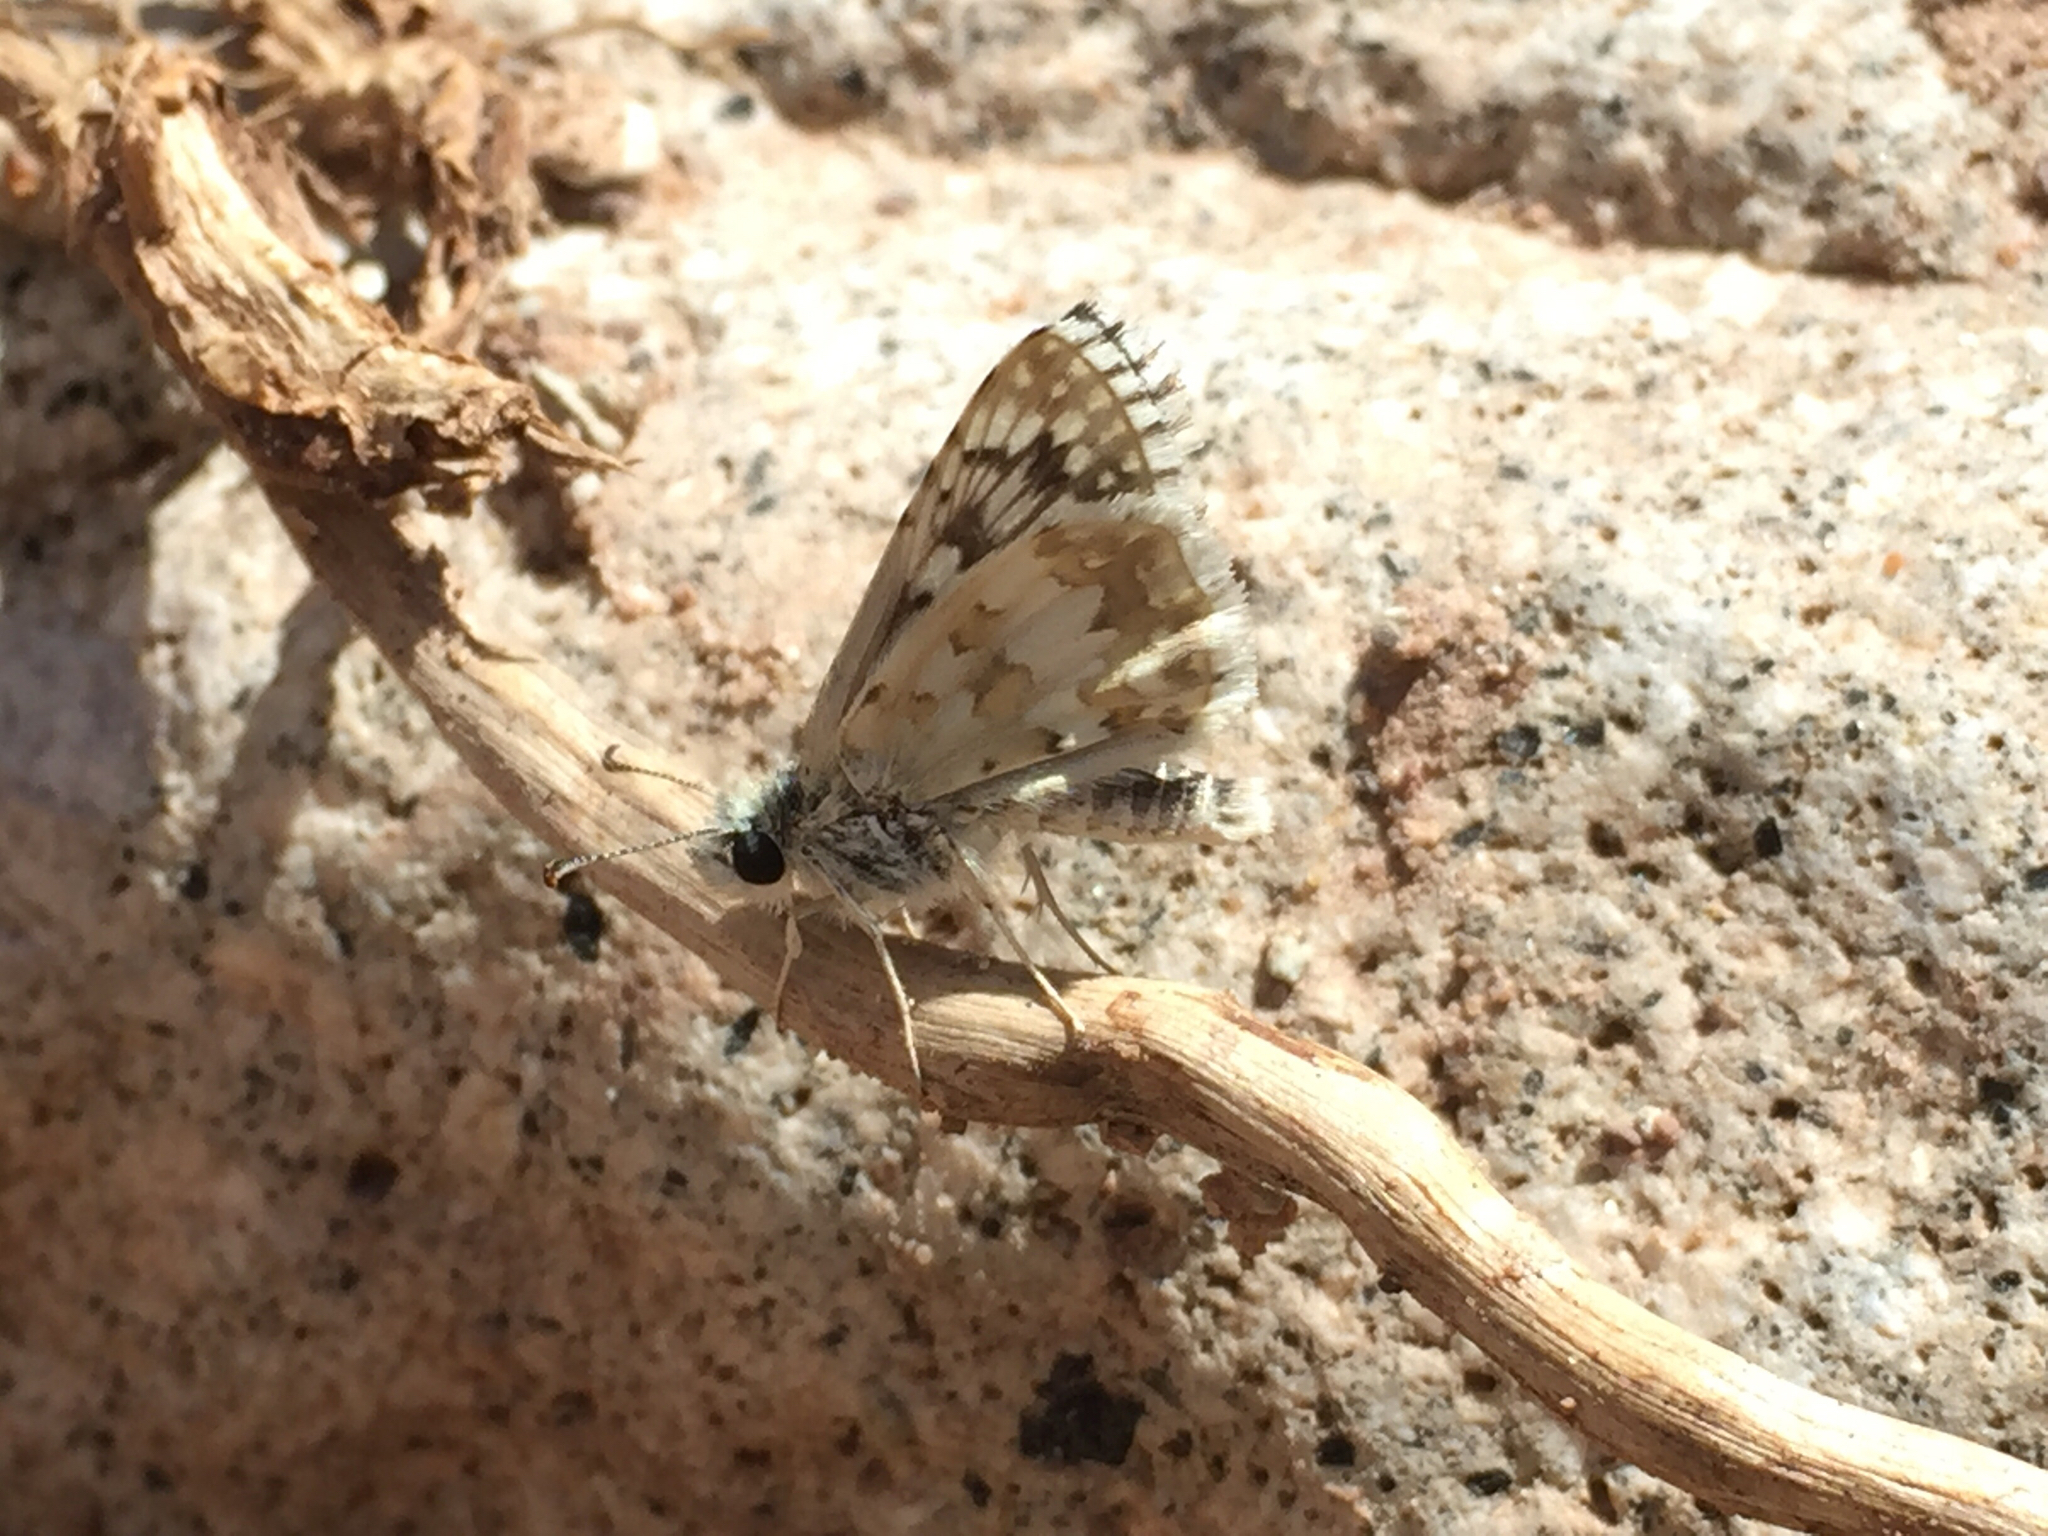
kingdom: Animalia
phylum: Arthropoda
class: Insecta
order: Lepidoptera
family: Hesperiidae
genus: Burnsius
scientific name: Burnsius communis
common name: Common checkered-skipper
